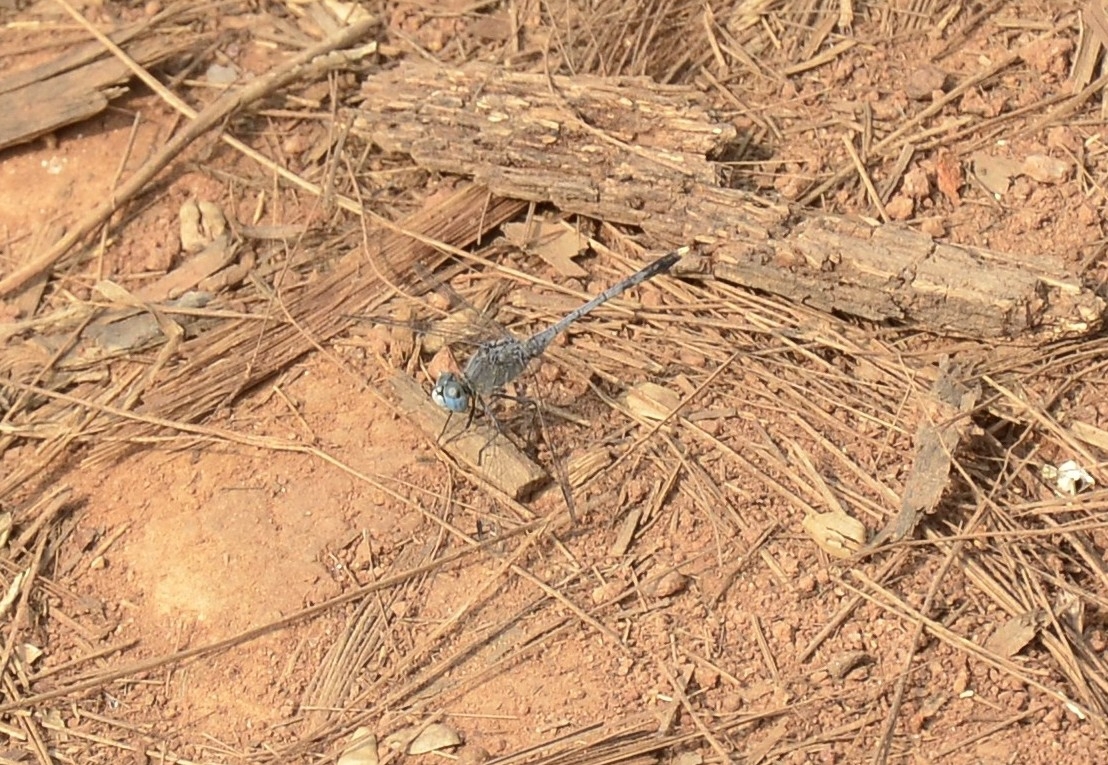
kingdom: Animalia
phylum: Arthropoda
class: Insecta
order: Odonata
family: Libellulidae
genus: Diplacodes
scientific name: Diplacodes trivialis
